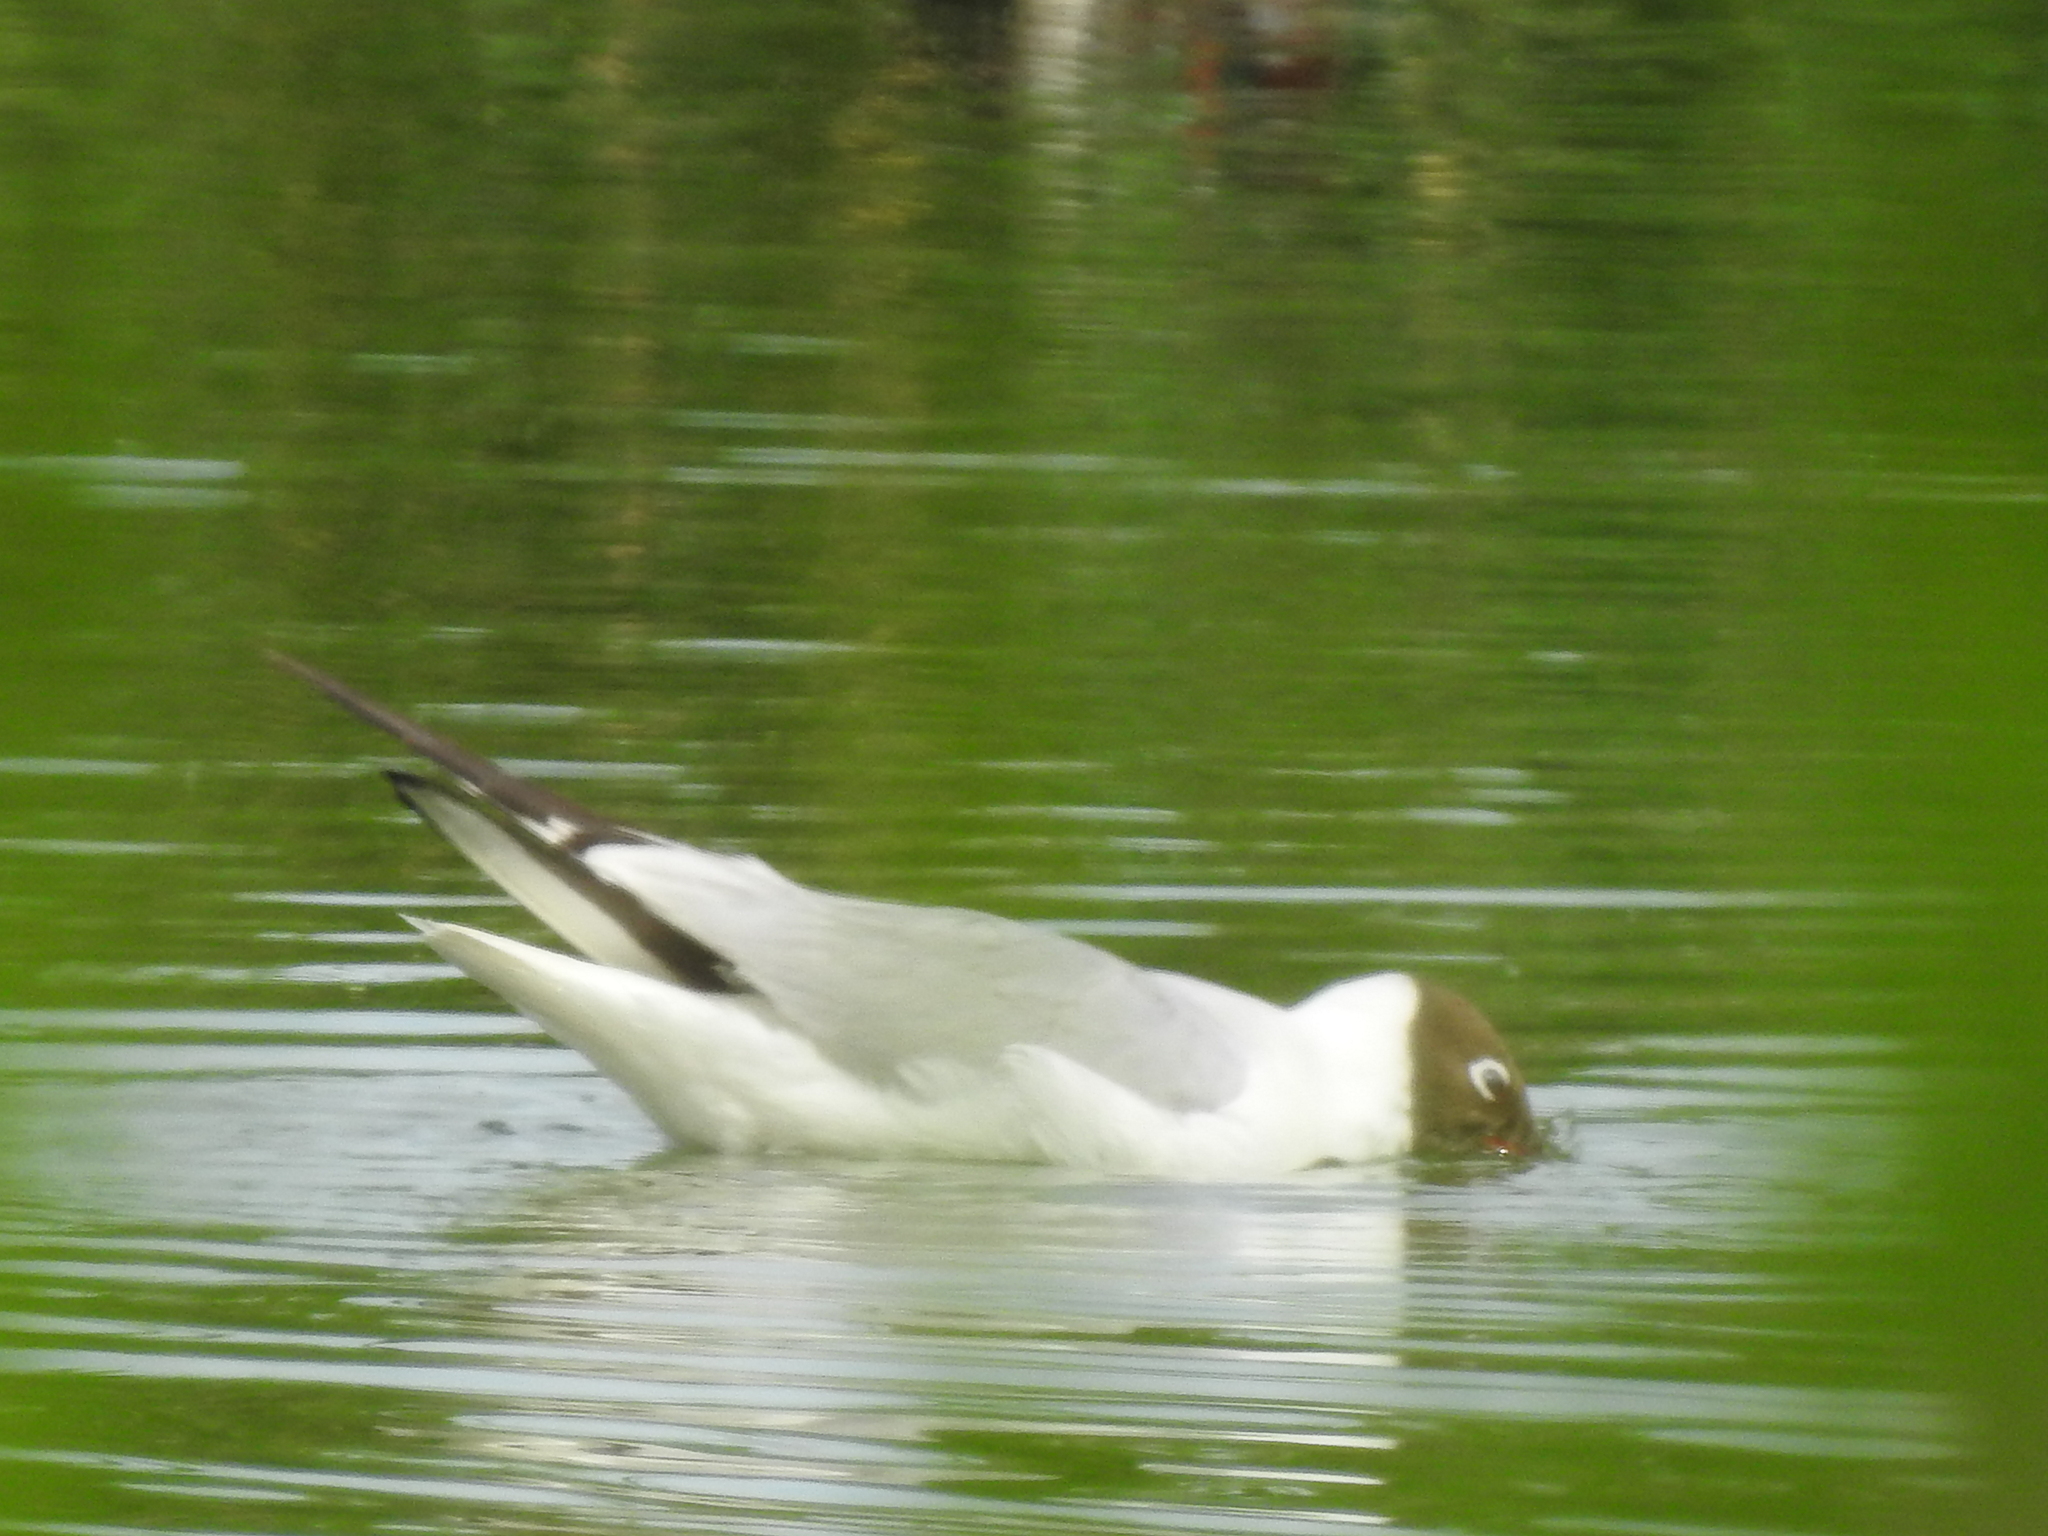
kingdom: Animalia
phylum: Chordata
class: Aves
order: Charadriiformes
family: Laridae
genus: Chroicocephalus
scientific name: Chroicocephalus ridibundus
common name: Black-headed gull
